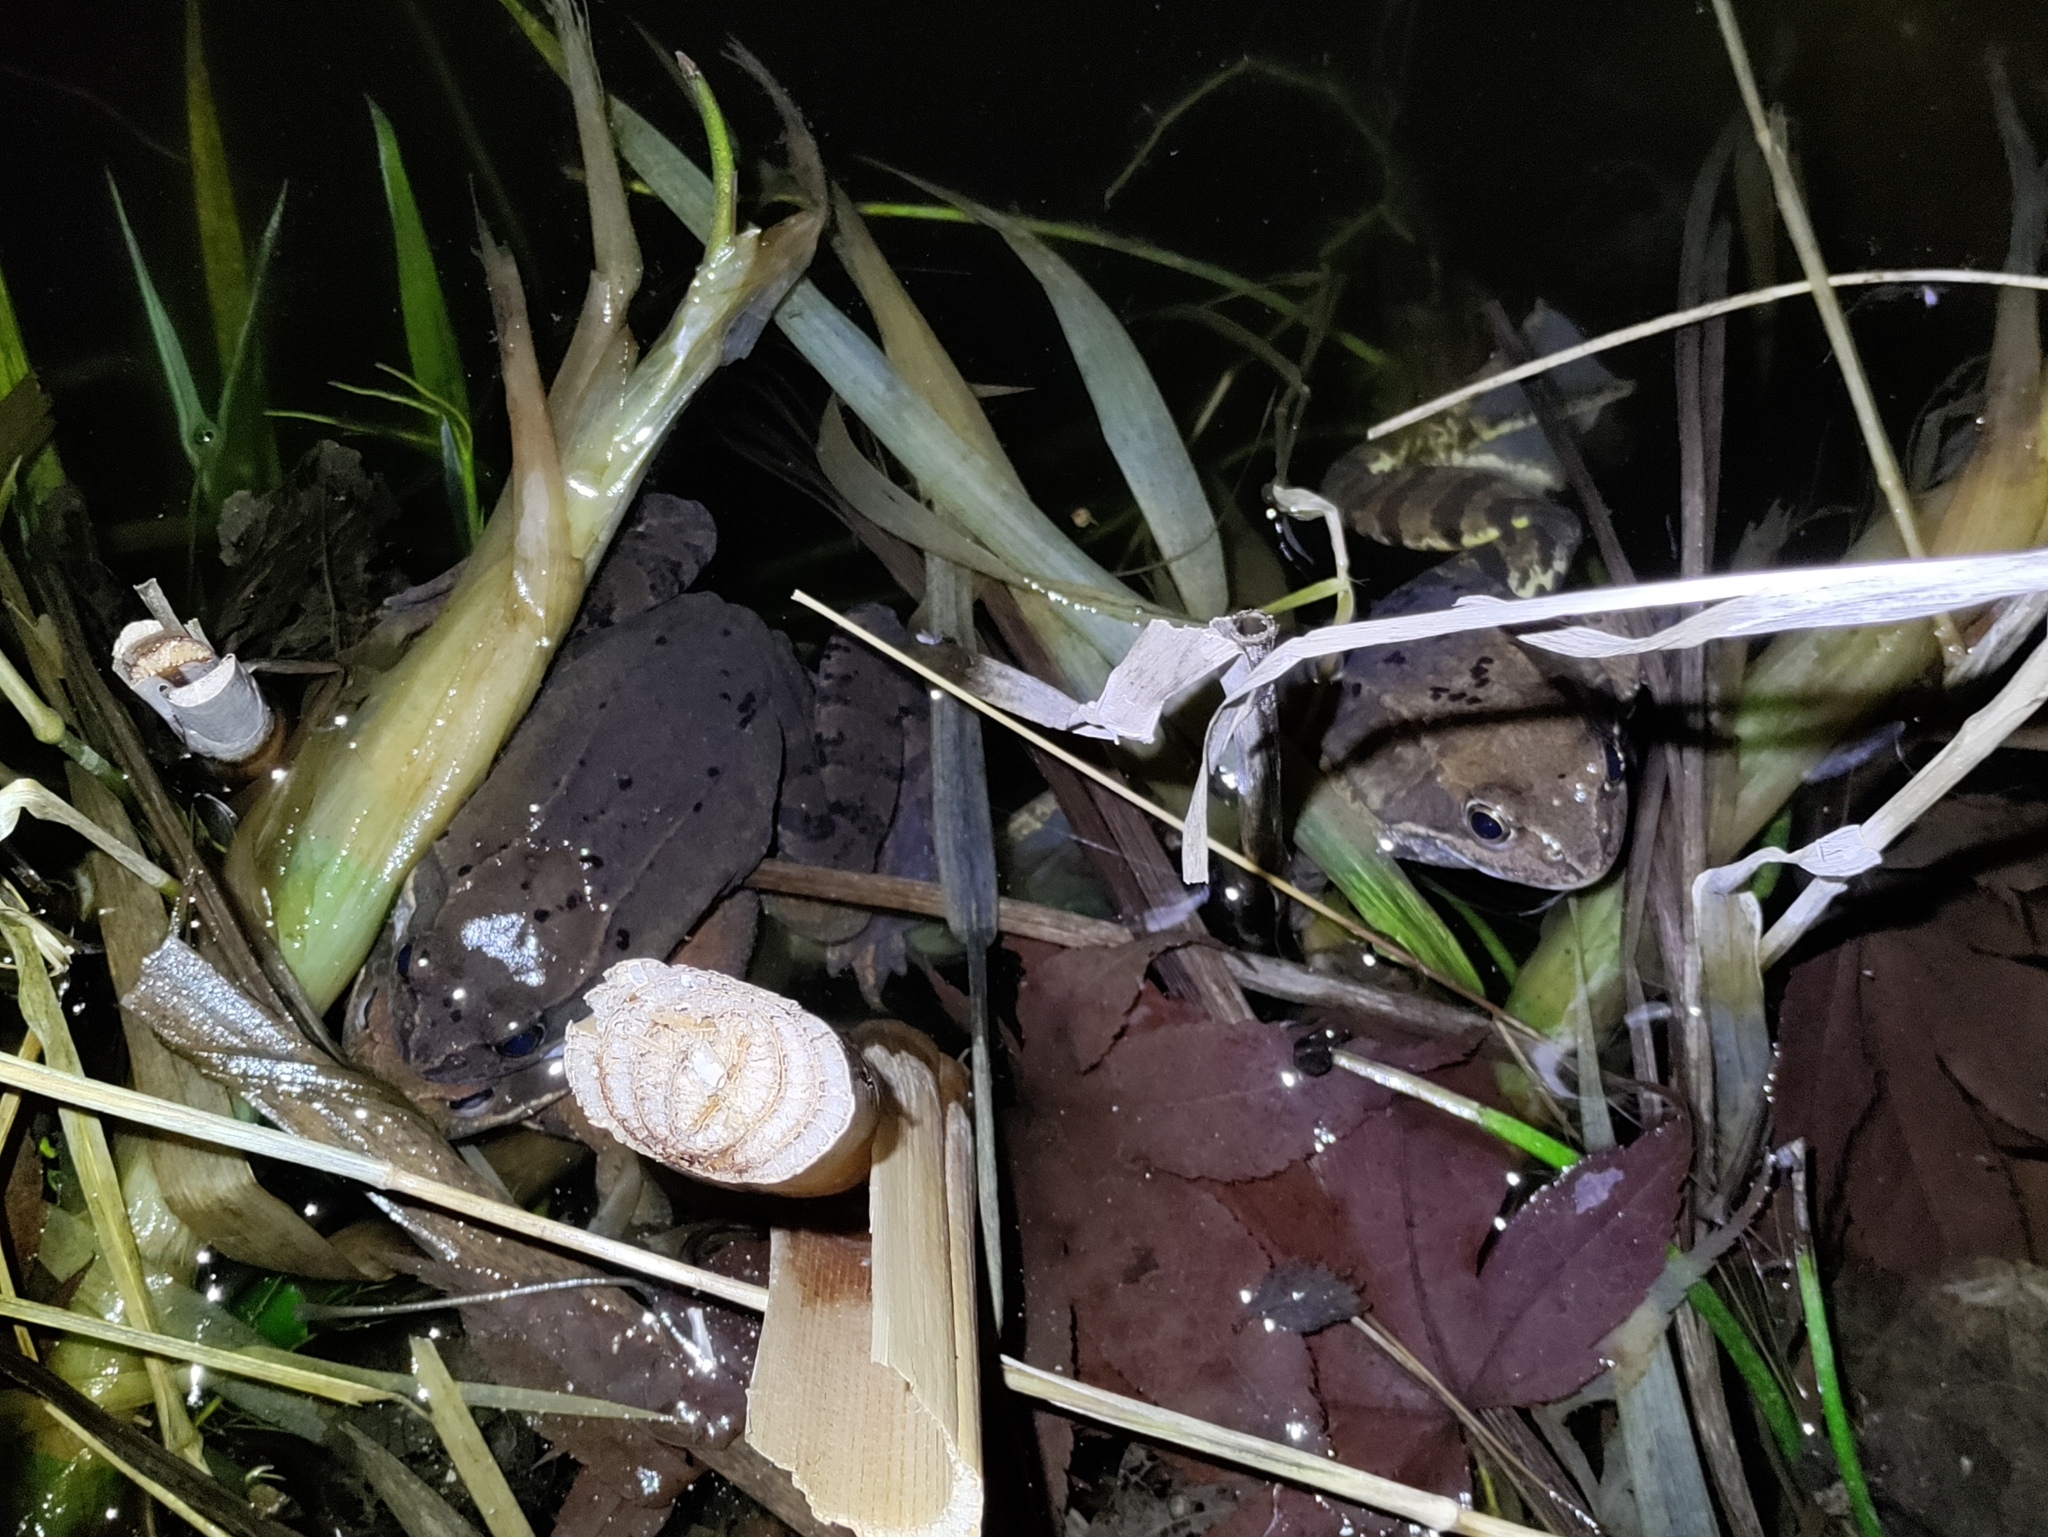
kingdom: Animalia
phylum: Chordata
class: Amphibia
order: Anura
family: Ranidae
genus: Rana
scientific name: Rana temporaria
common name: Common frog
